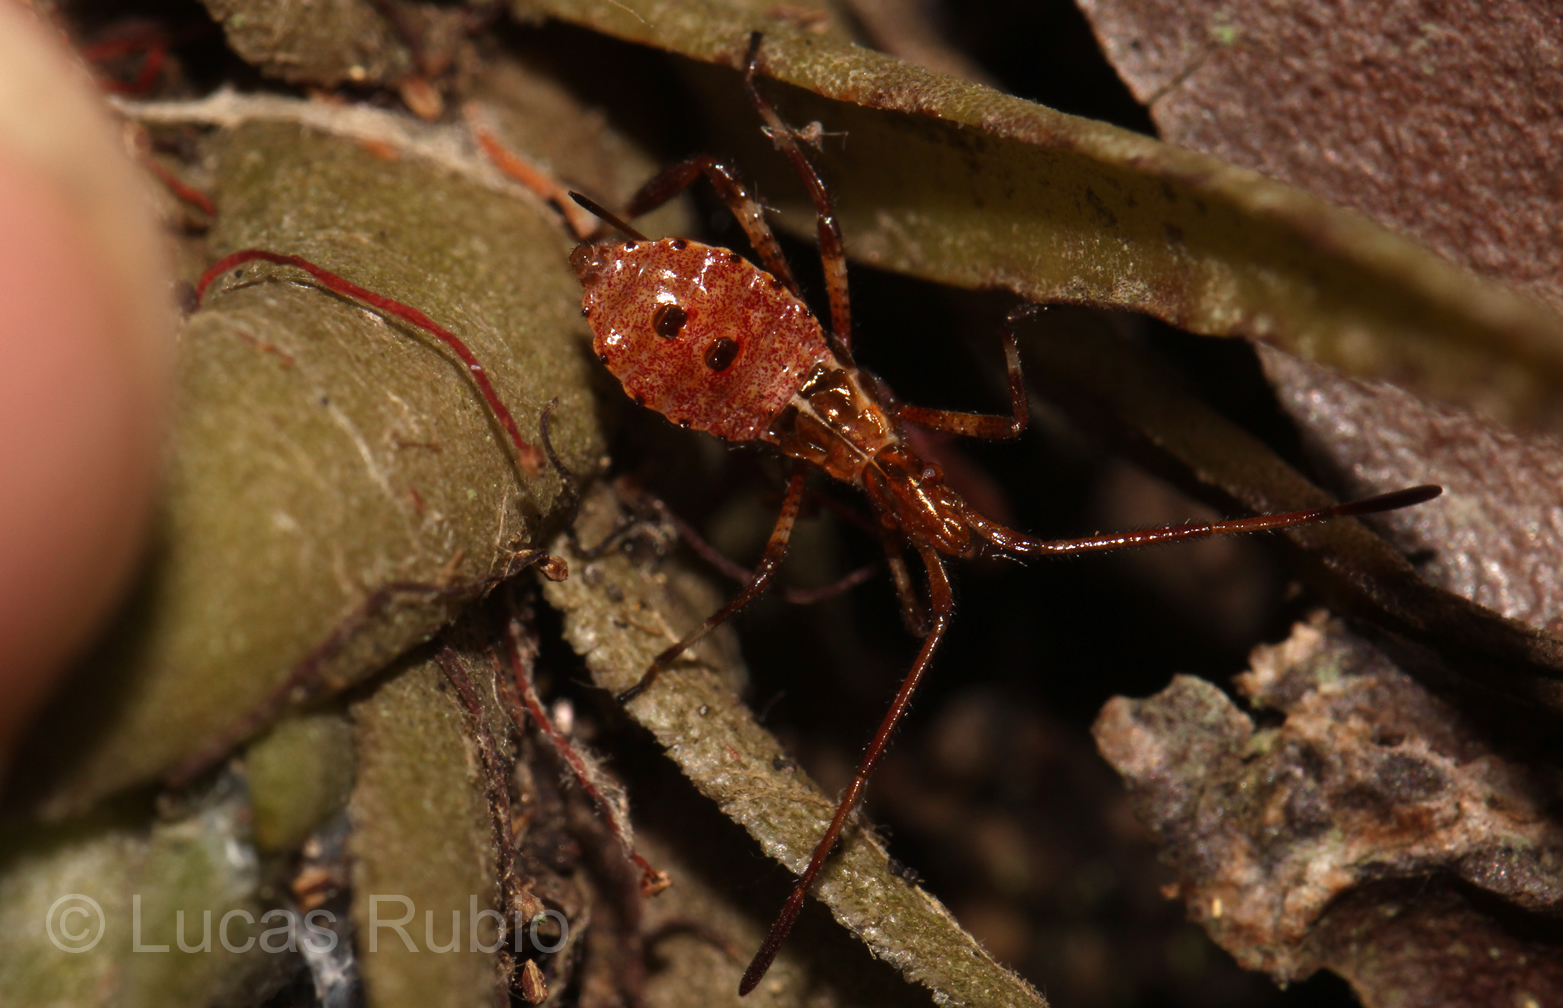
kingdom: Animalia
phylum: Arthropoda
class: Insecta
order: Hemiptera
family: Coreidae
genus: Leptoglossus
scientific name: Leptoglossus occidentalis
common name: Western conifer-seed bug
